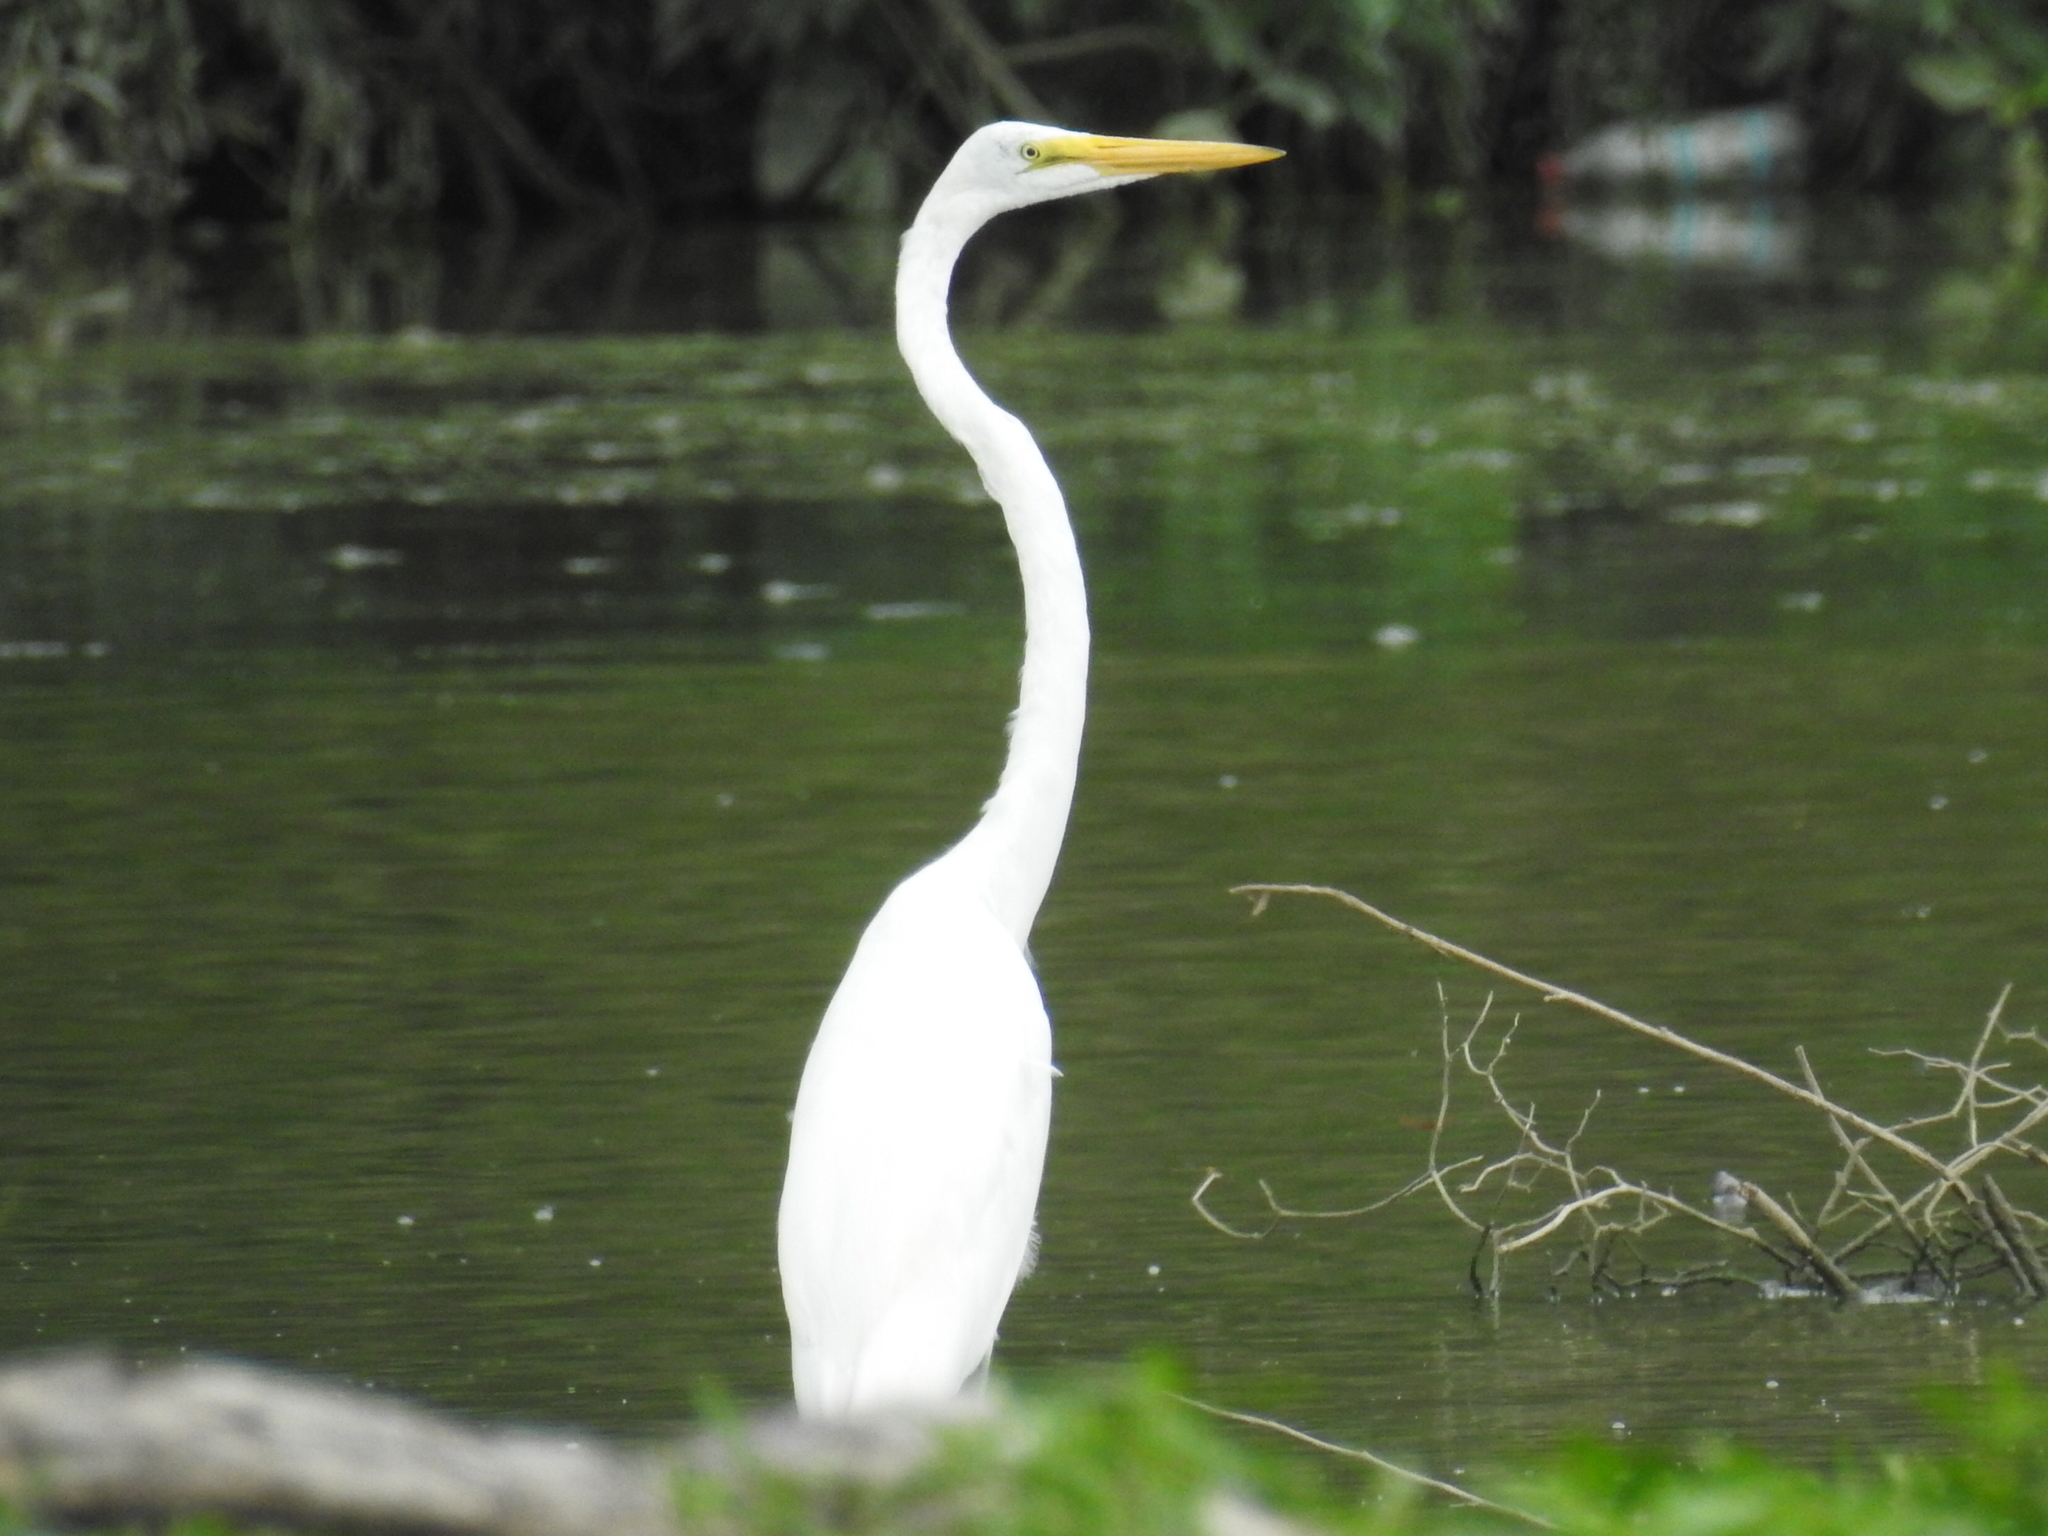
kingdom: Animalia
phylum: Chordata
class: Aves
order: Pelecaniformes
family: Ardeidae
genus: Ardea
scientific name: Ardea alba
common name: Great egret
